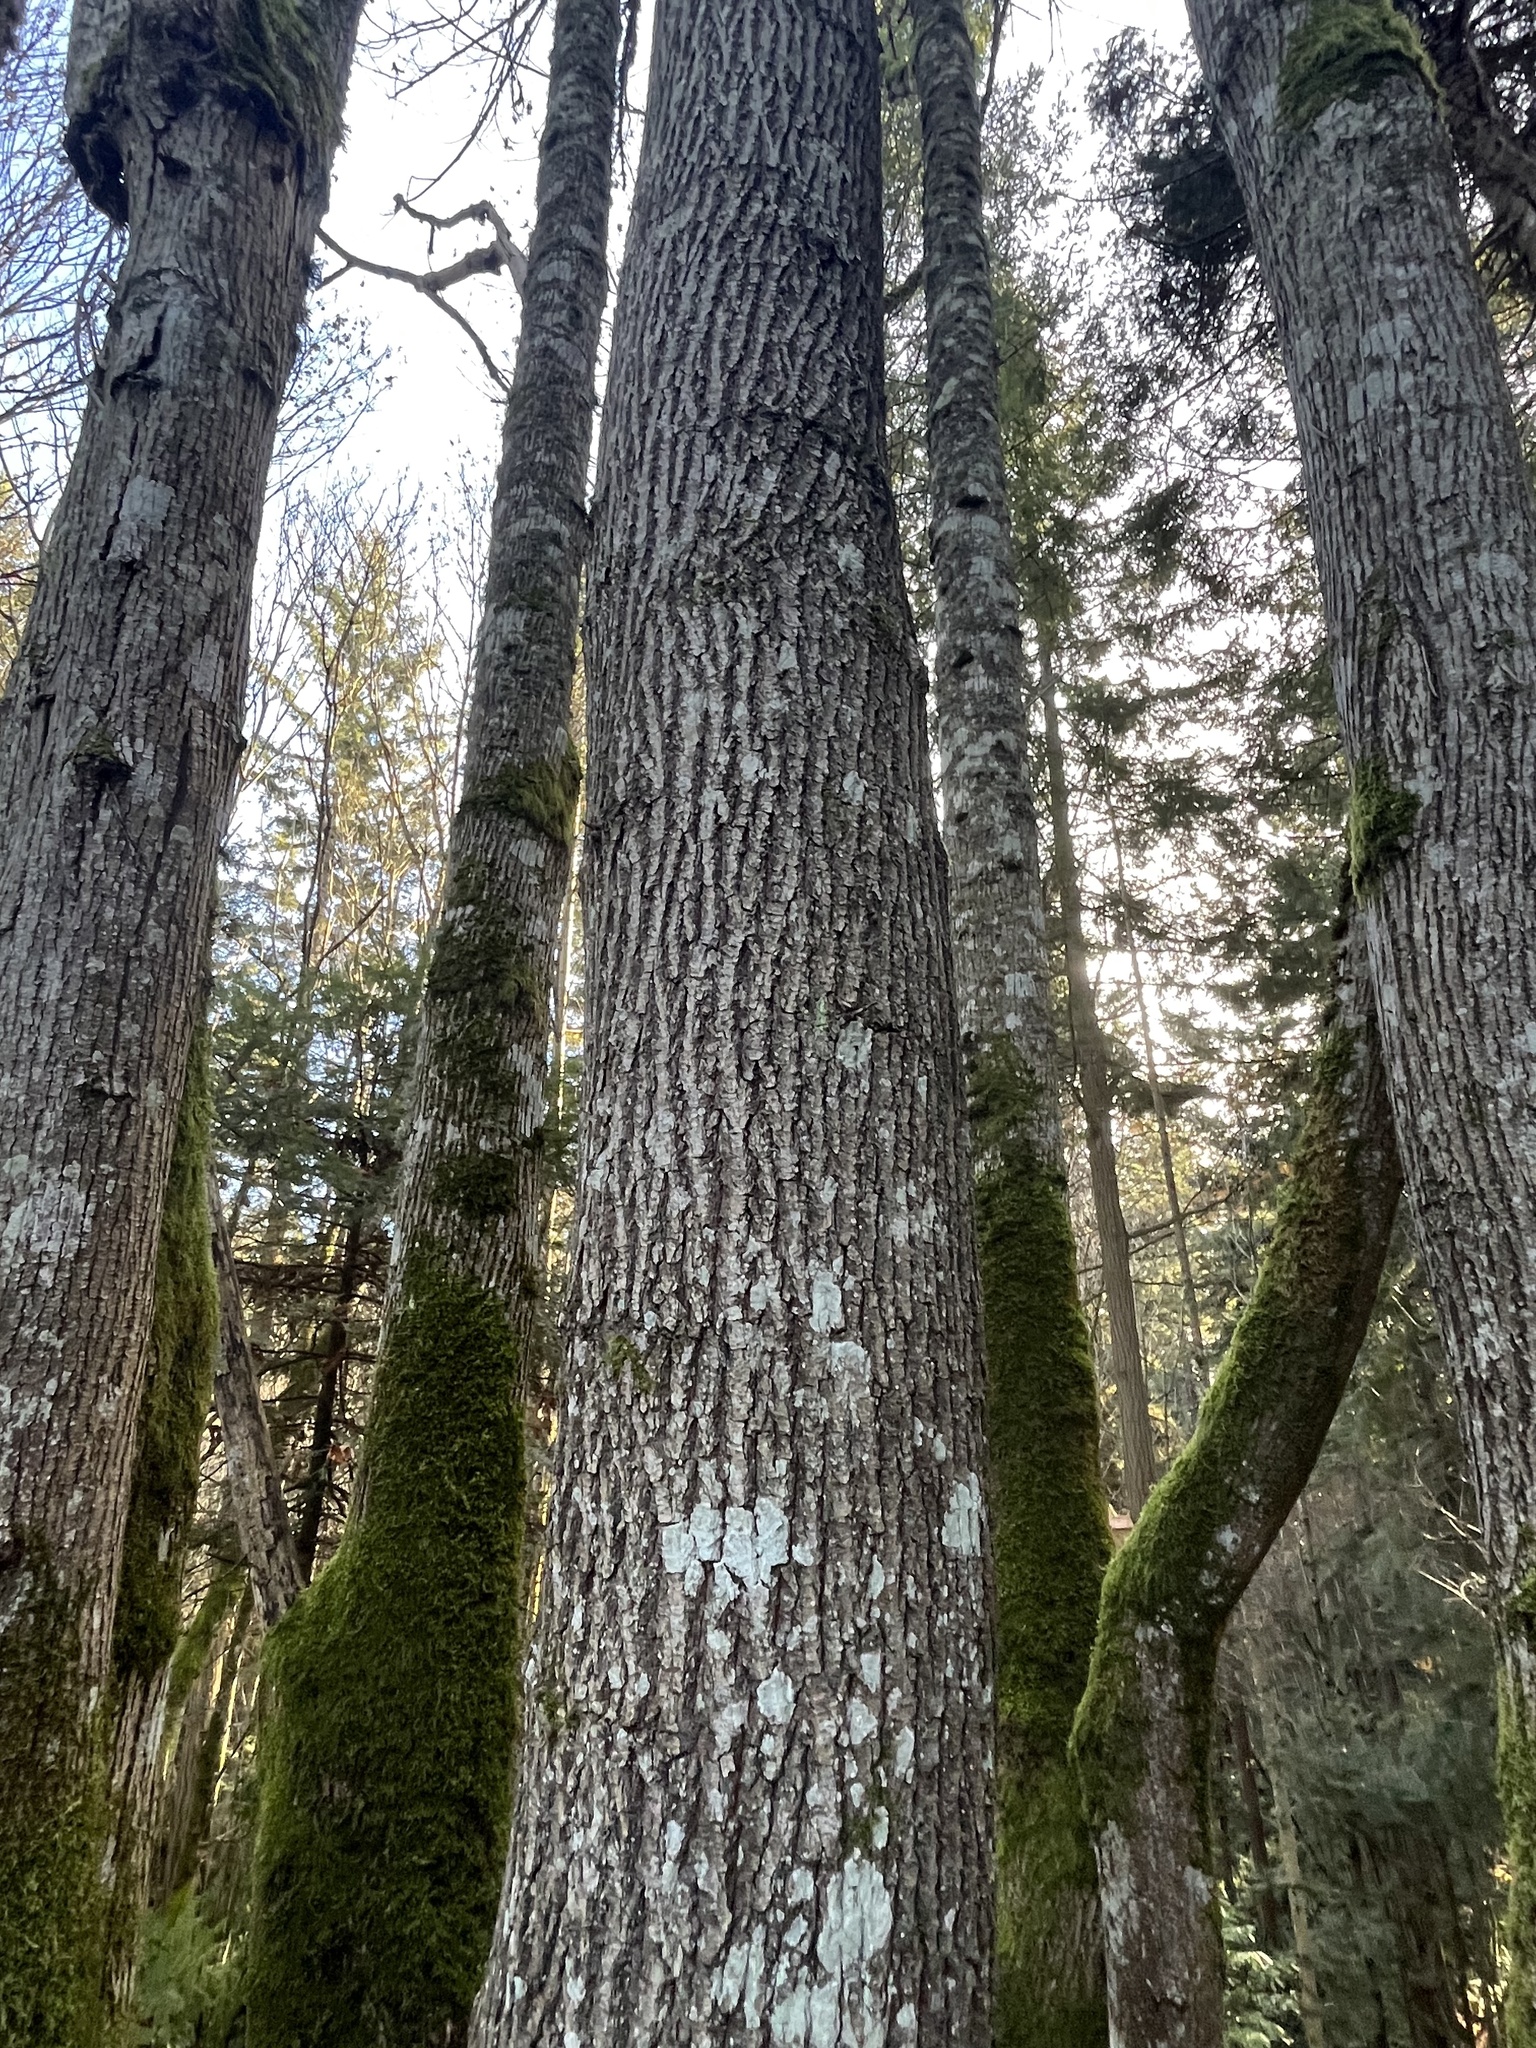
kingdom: Plantae
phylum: Tracheophyta
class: Magnoliopsida
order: Sapindales
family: Sapindaceae
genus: Acer
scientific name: Acer macrophyllum
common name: Oregon maple
